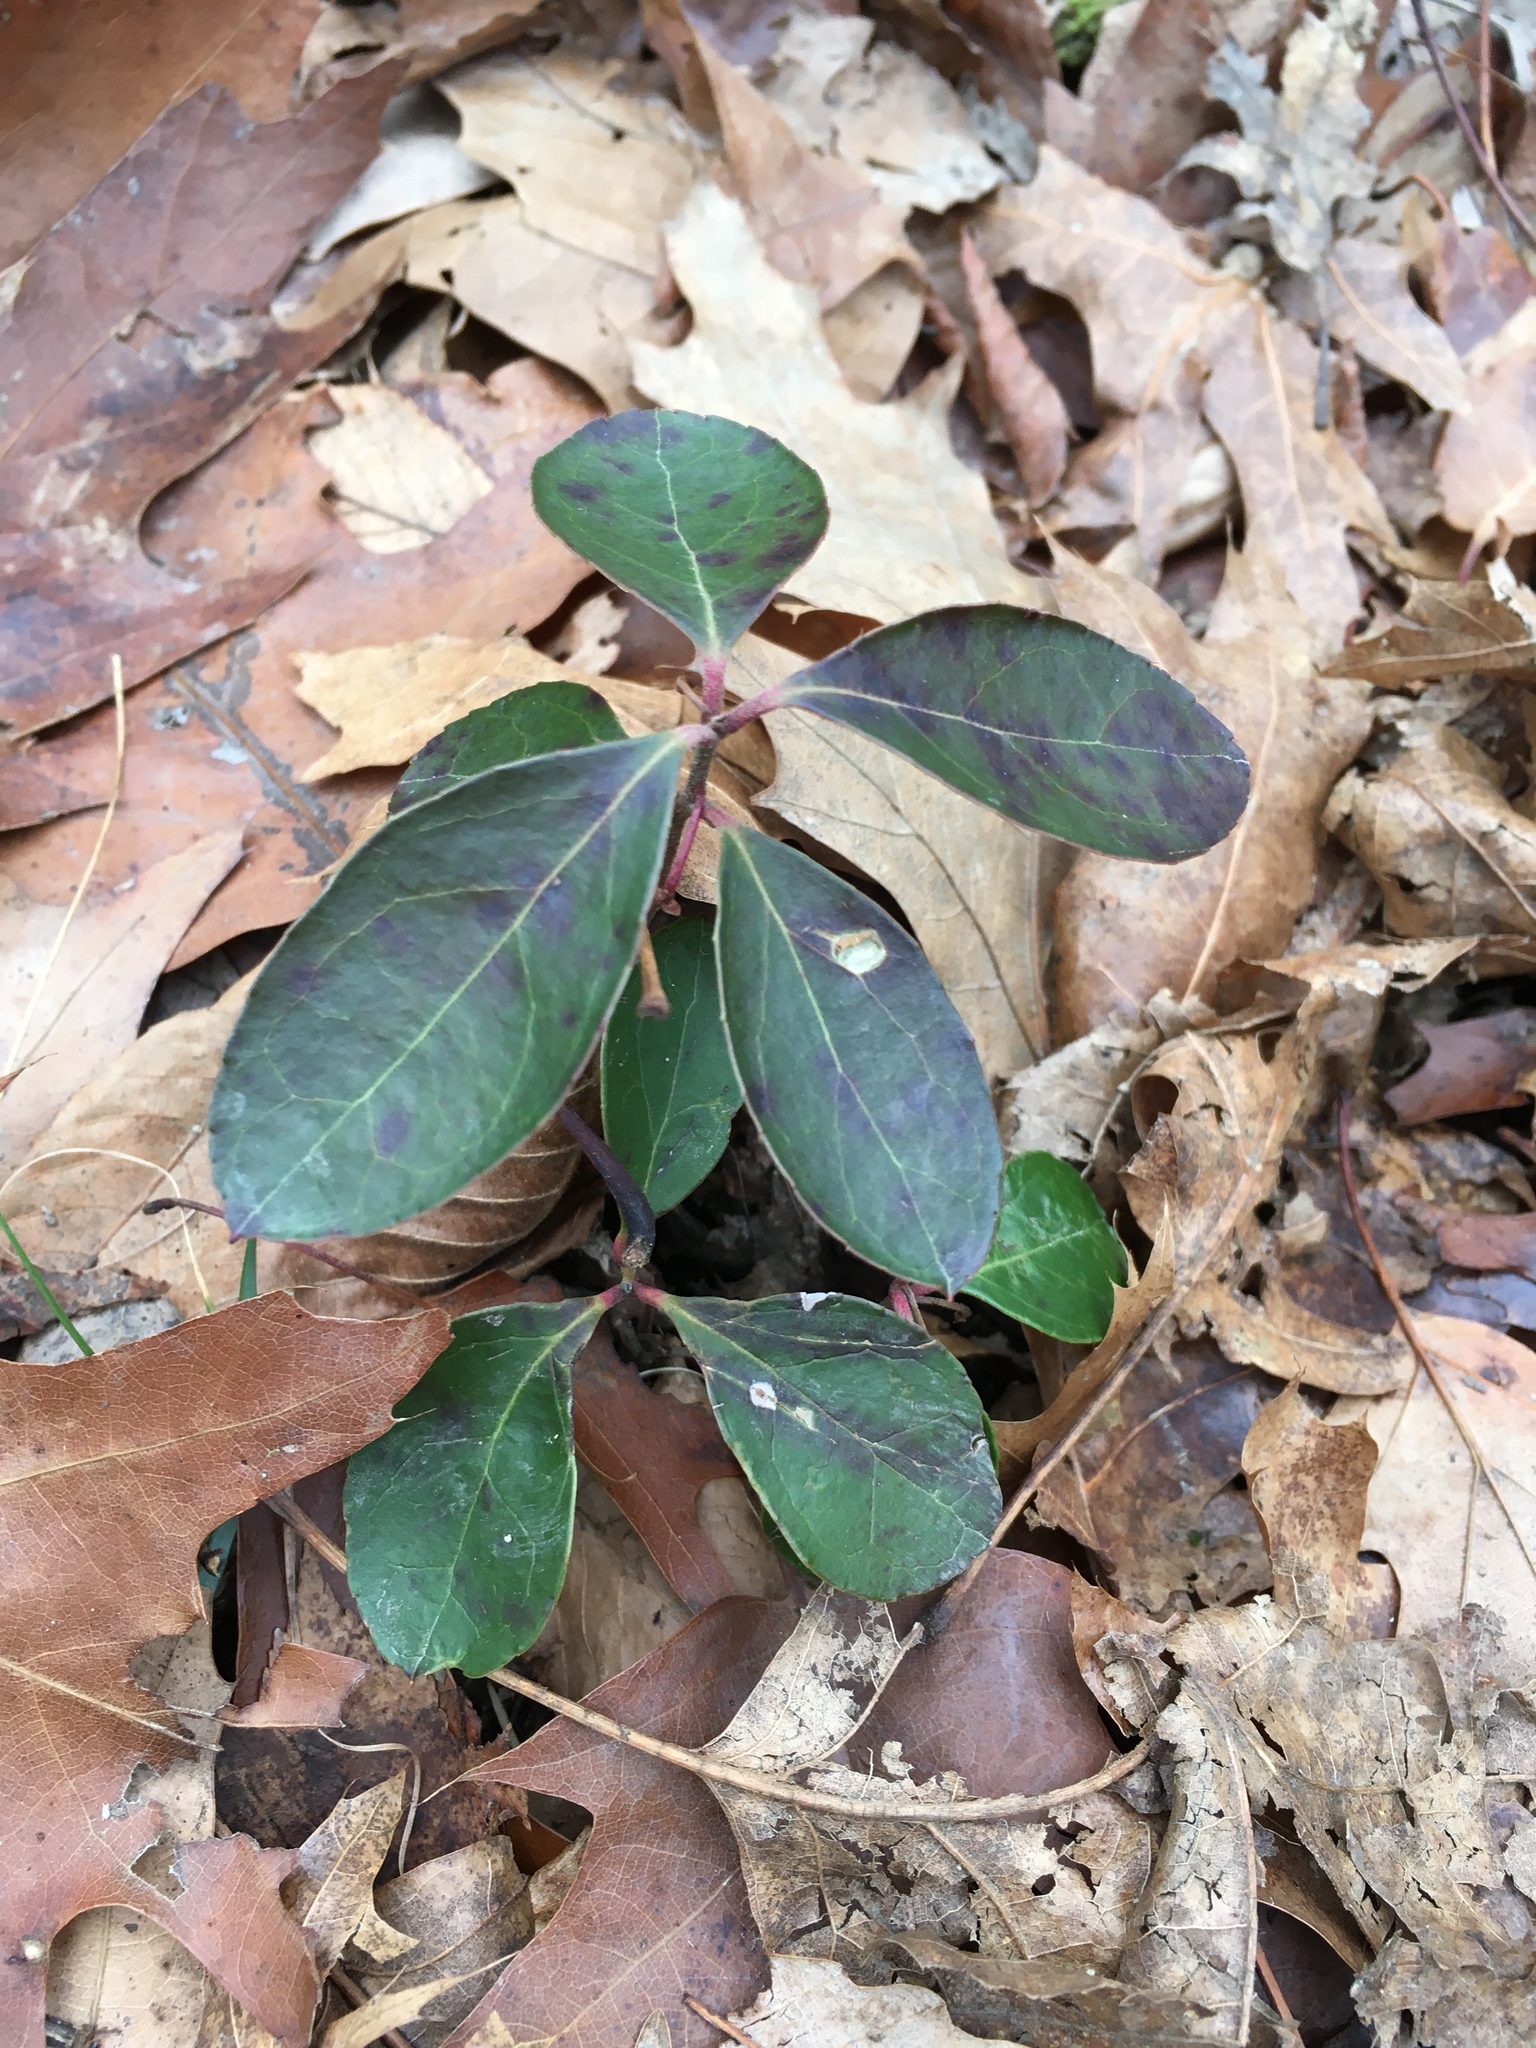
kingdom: Plantae
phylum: Tracheophyta
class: Magnoliopsida
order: Ericales
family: Ericaceae
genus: Gaultheria
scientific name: Gaultheria procumbens
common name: Checkerberry
